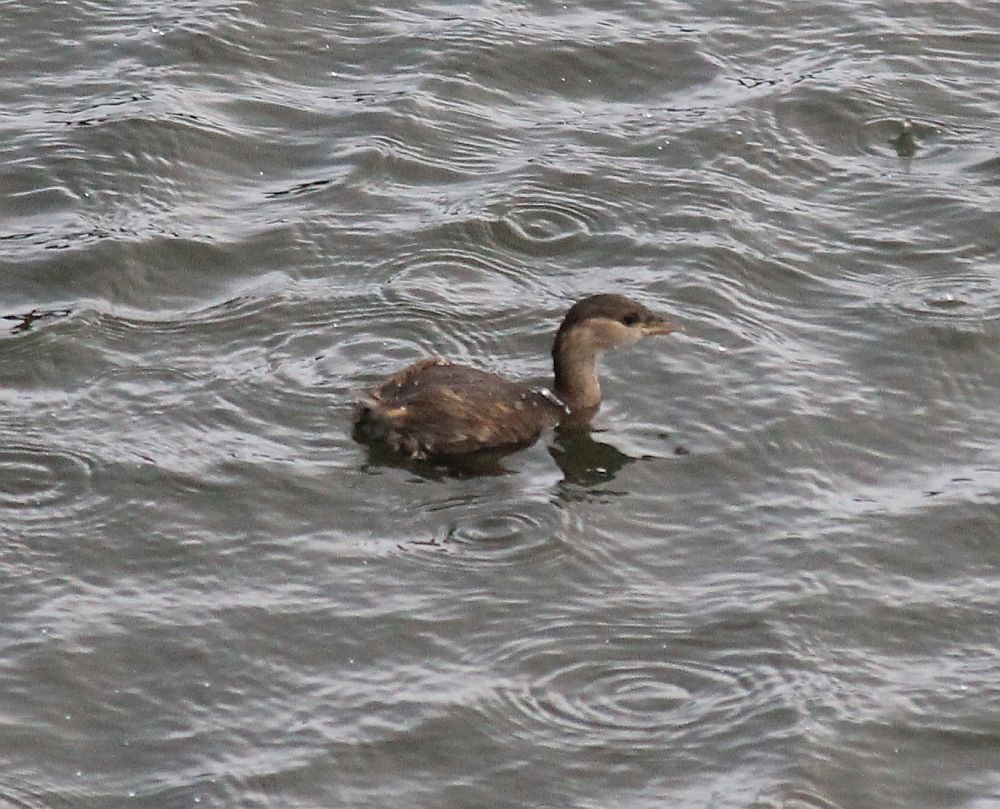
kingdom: Animalia
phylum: Chordata
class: Aves
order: Podicipediformes
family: Podicipedidae
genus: Tachybaptus
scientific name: Tachybaptus ruficollis
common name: Little grebe
